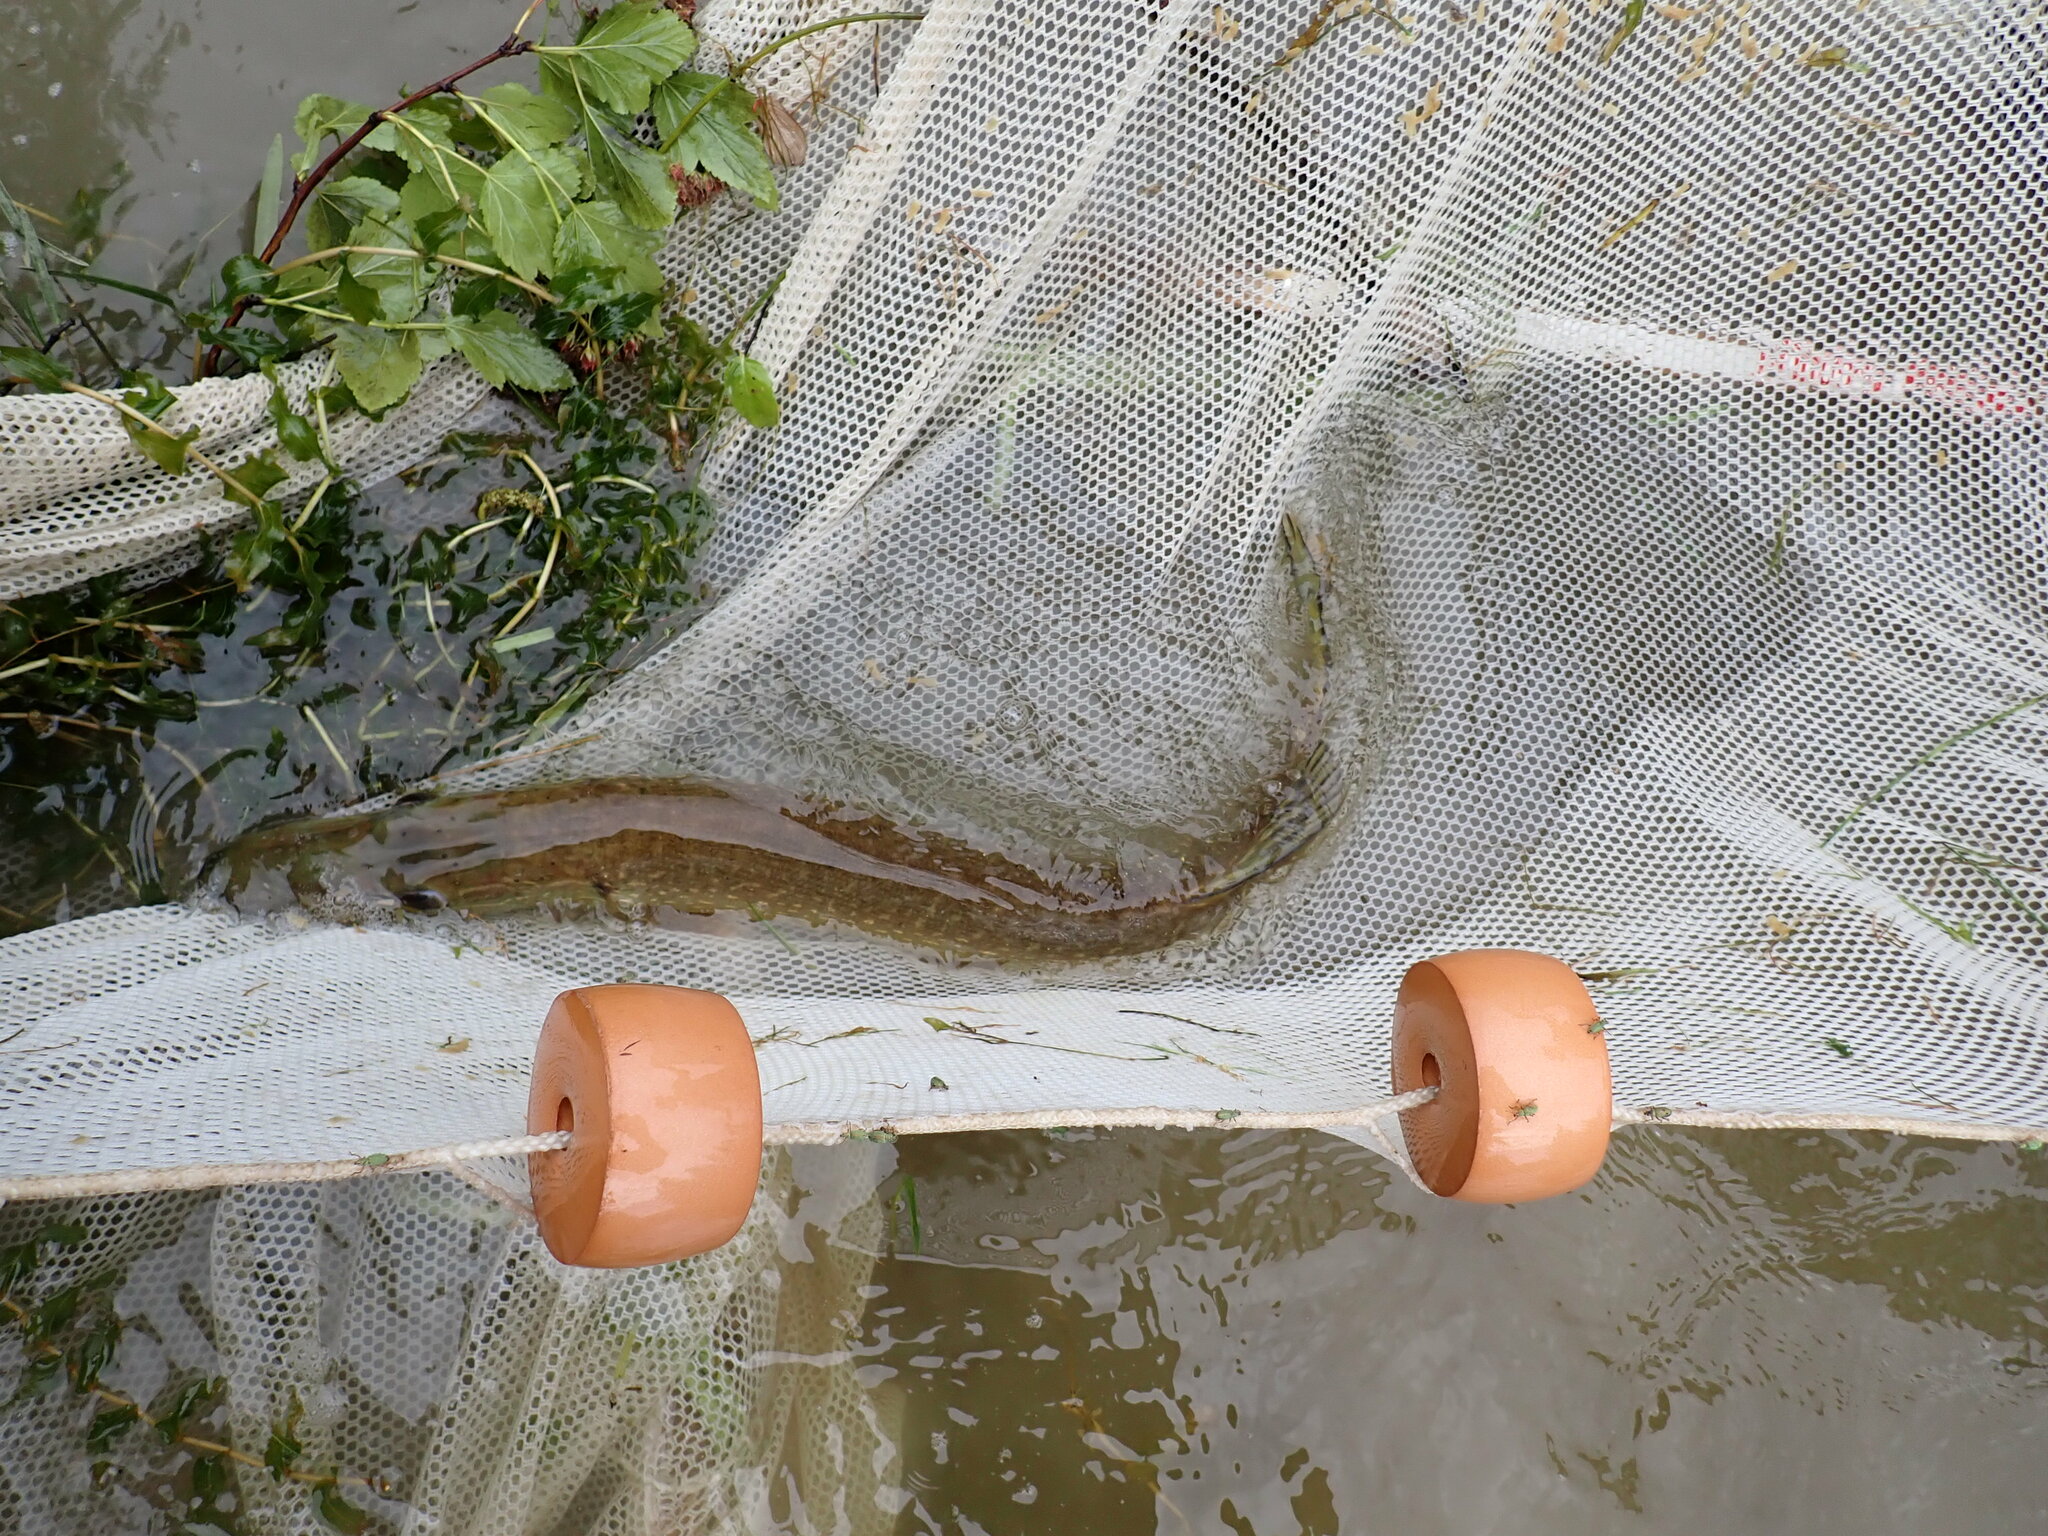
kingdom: Animalia
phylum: Chordata
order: Esociformes
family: Esocidae
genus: Esox
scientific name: Esox lucius
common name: Northern pike
